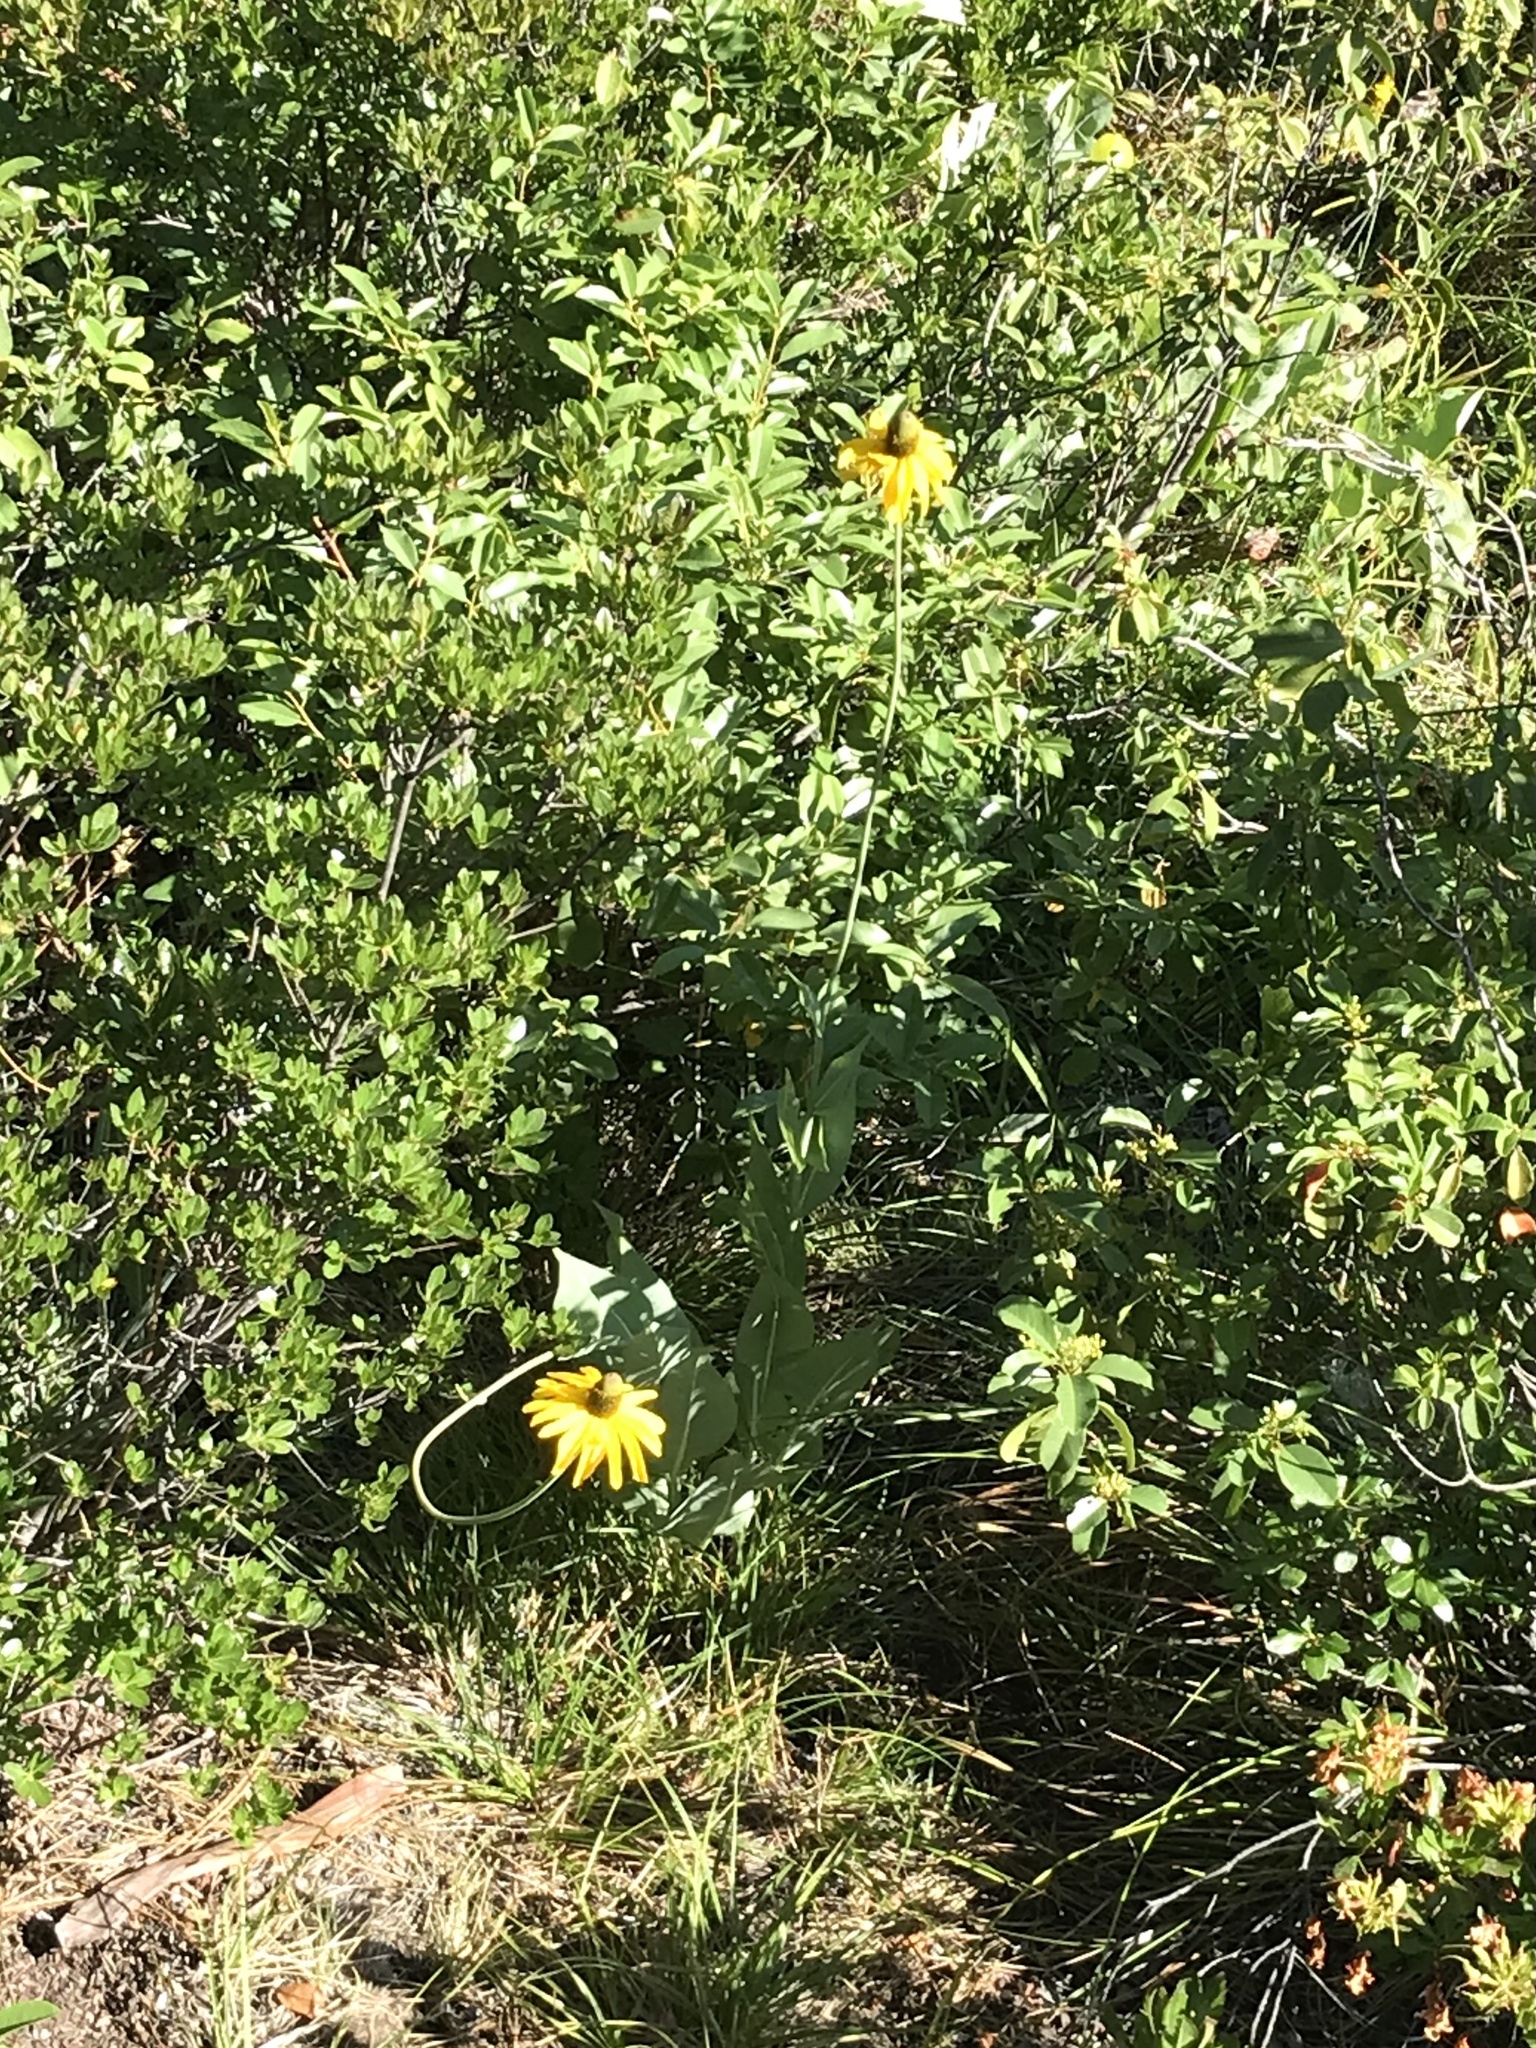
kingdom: Plantae
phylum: Tracheophyta
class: Magnoliopsida
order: Asterales
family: Asteraceae
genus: Rudbeckia
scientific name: Rudbeckia glaucescens
